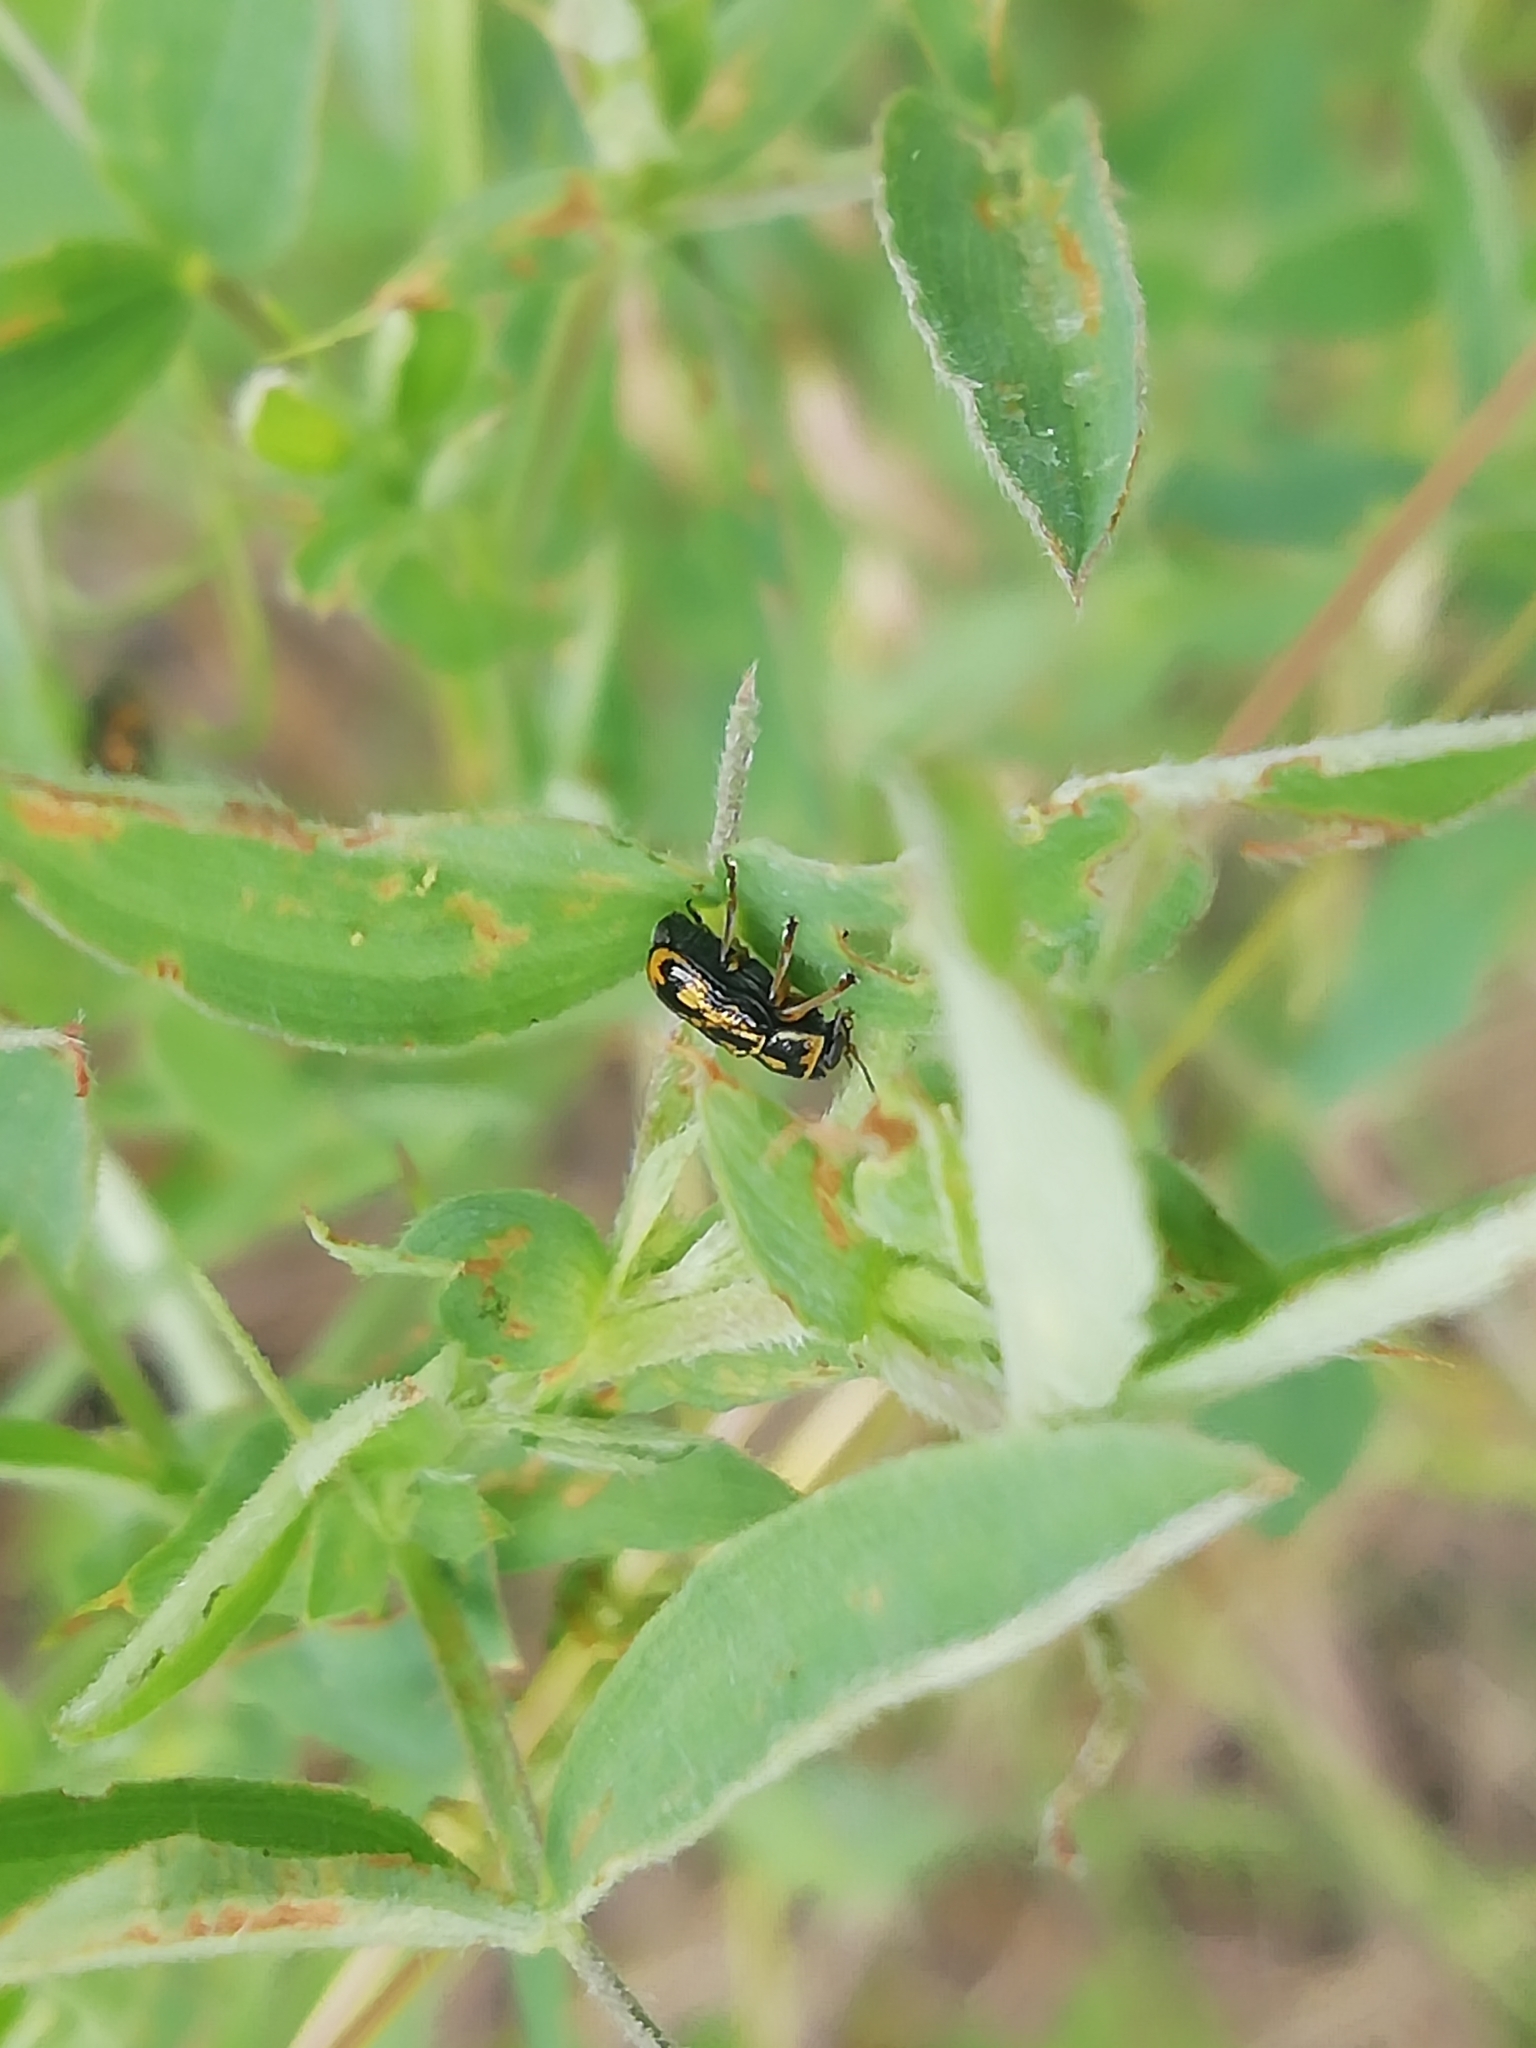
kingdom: Animalia
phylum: Arthropoda
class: Insecta
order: Coleoptera
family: Chrysomelidae
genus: Pachybrachis
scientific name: Pachybrachis hieroglyphicus
